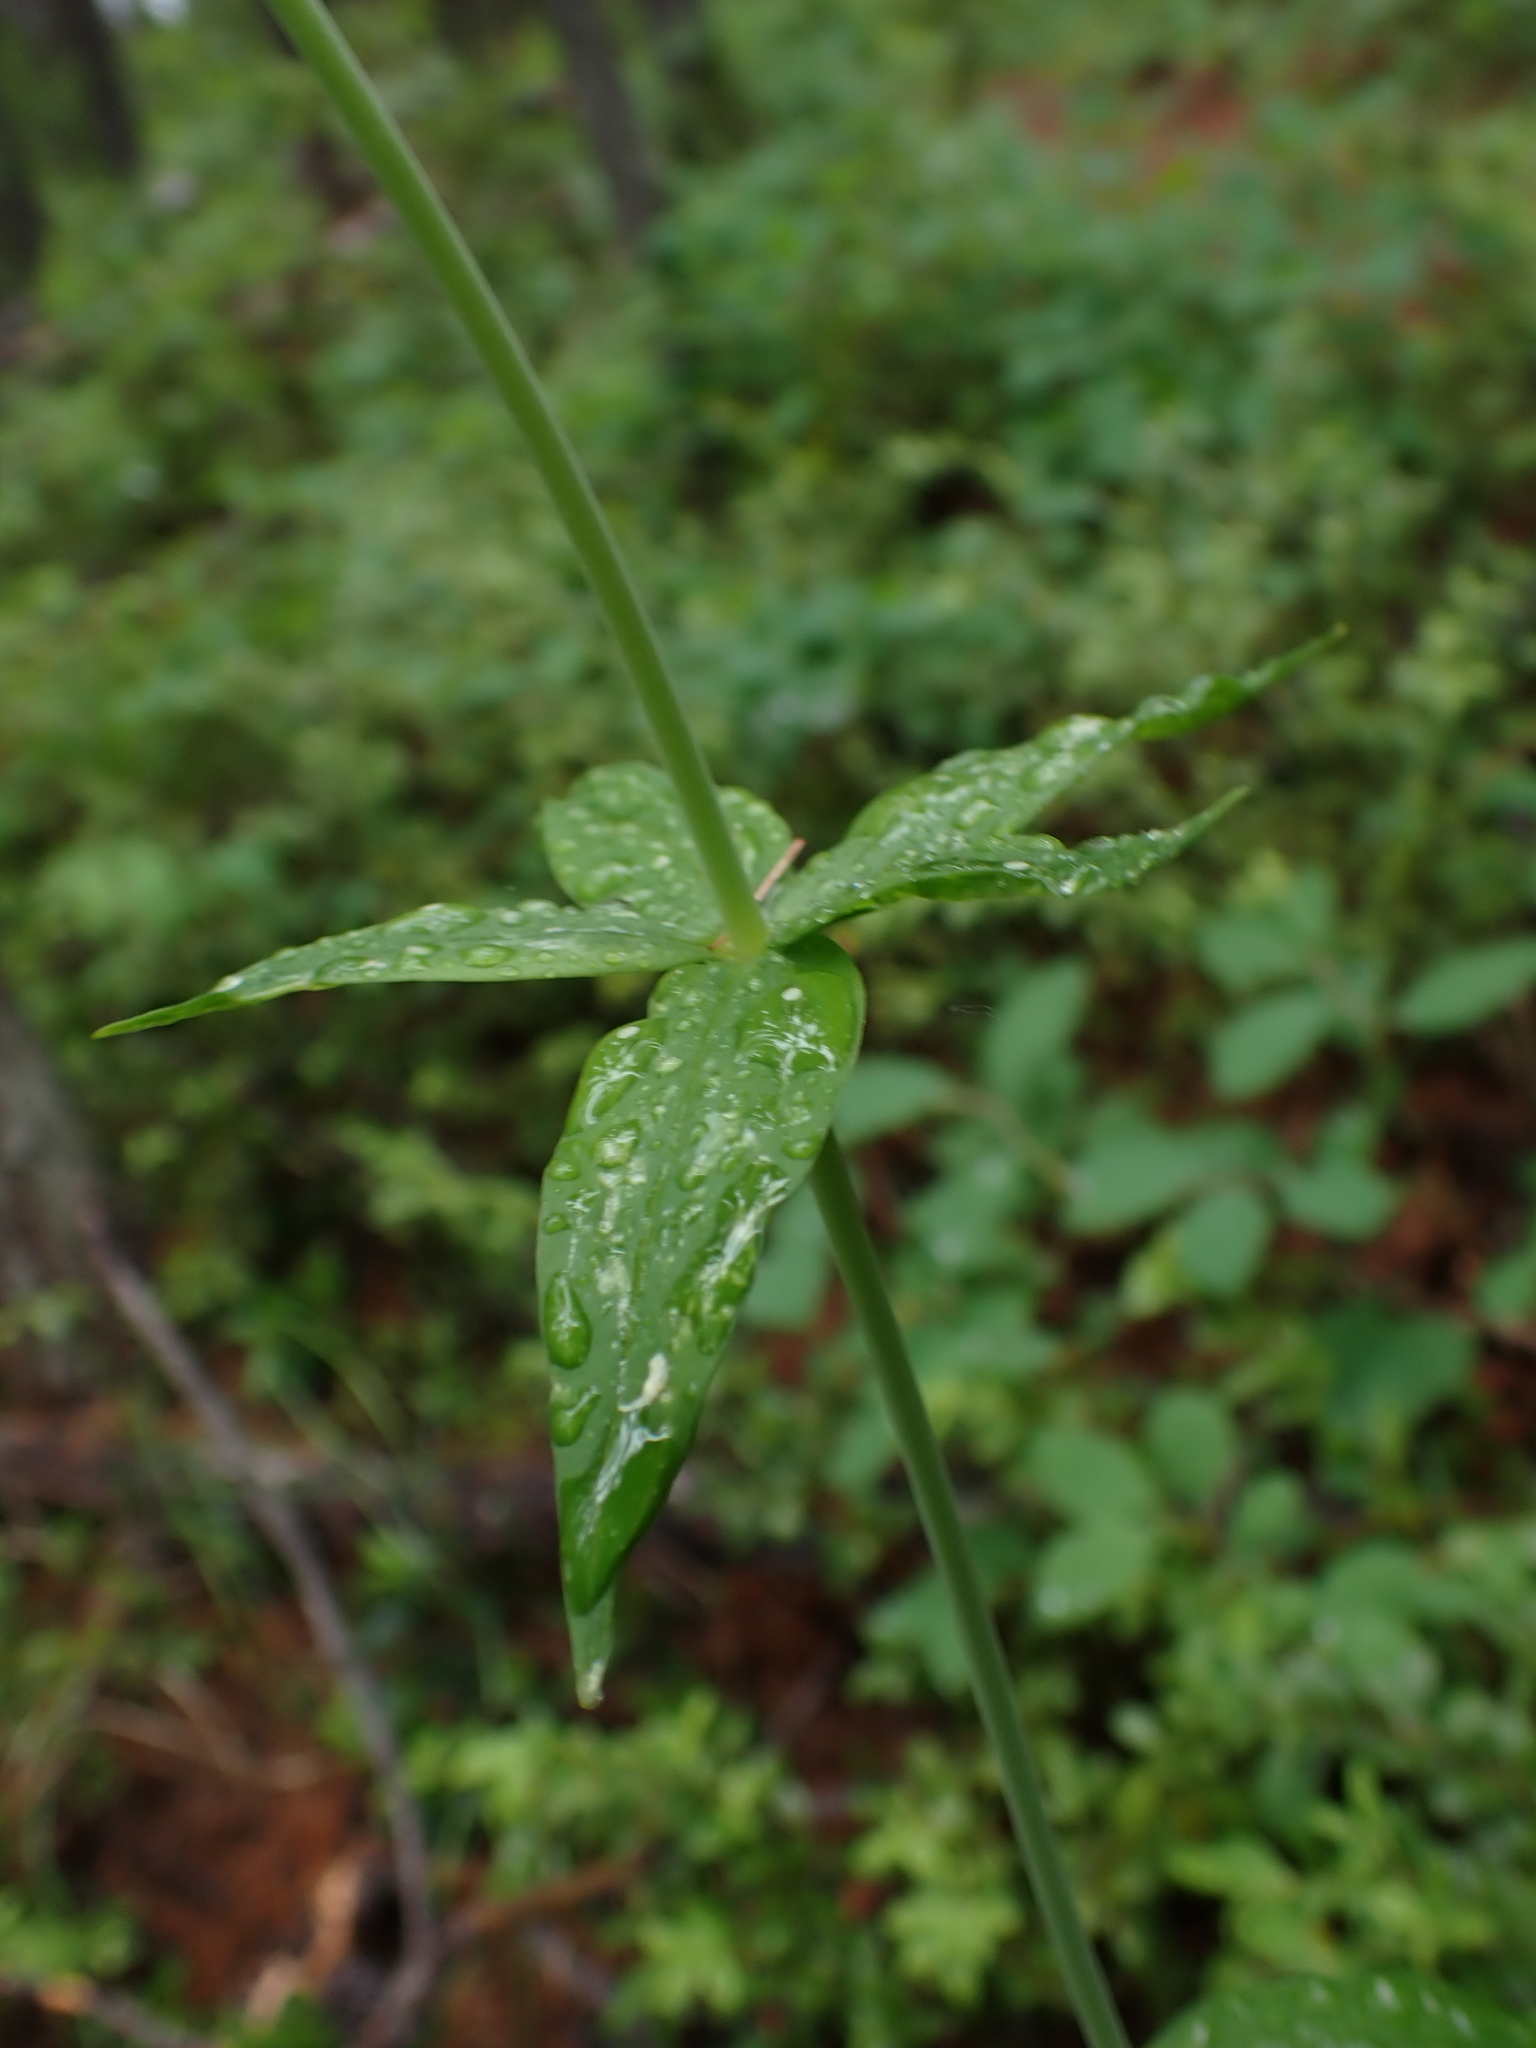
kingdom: Plantae
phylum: Tracheophyta
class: Liliopsida
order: Liliales
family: Liliaceae
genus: Lilium
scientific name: Lilium columbianum
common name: Columbia lily
